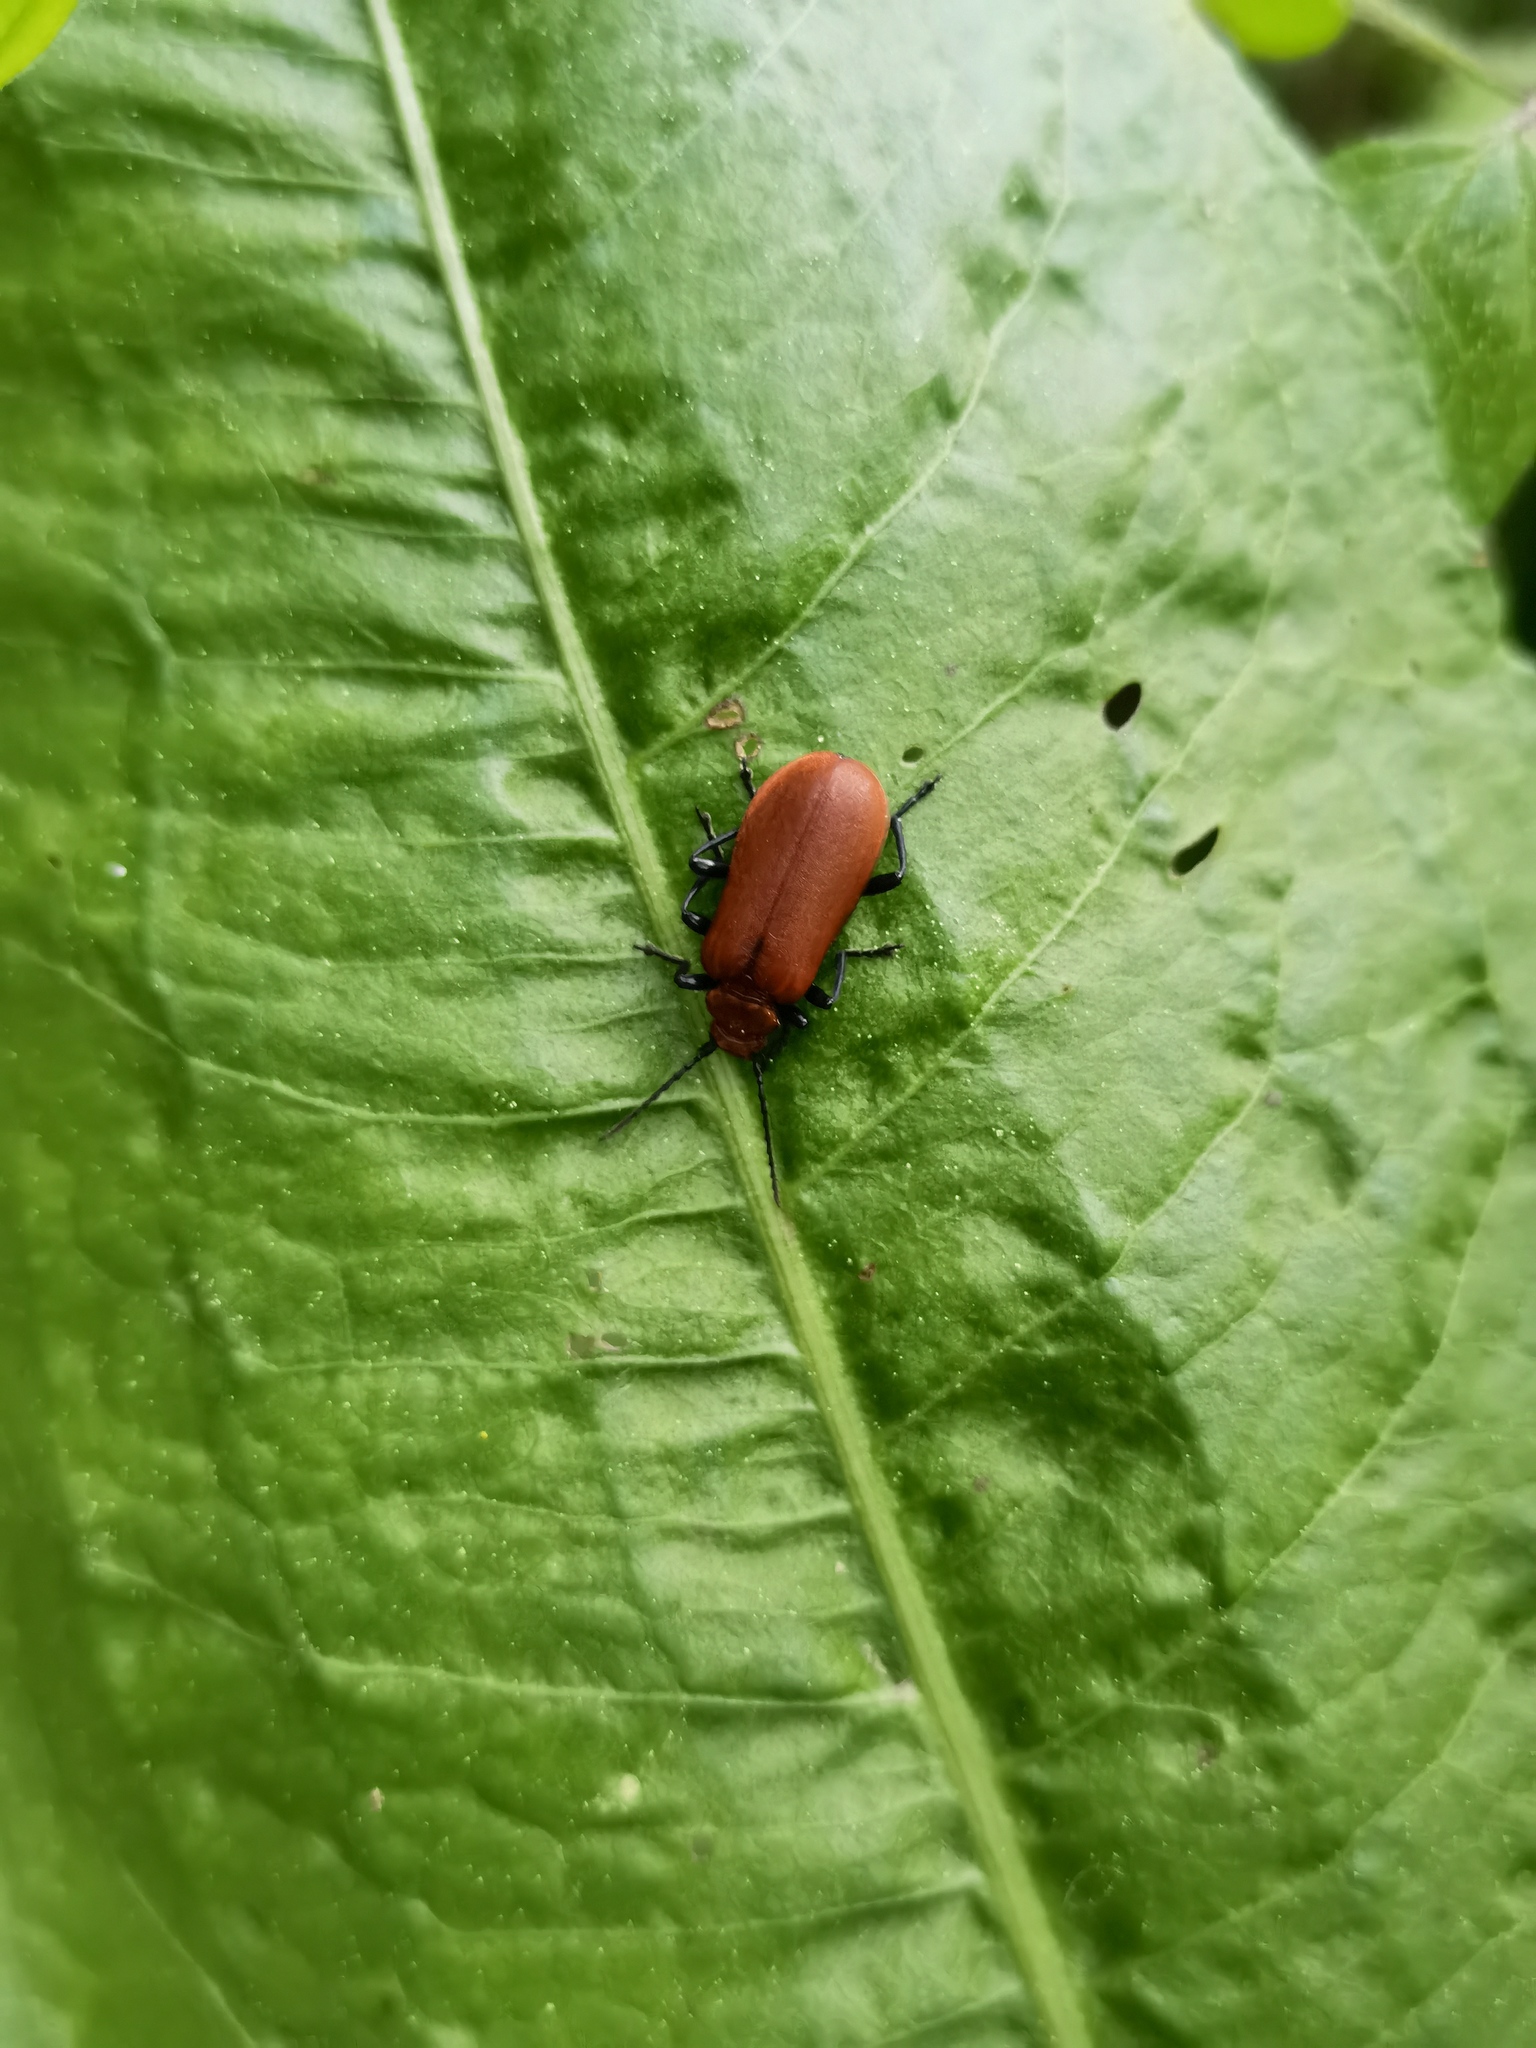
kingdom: Animalia
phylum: Arthropoda
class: Insecta
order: Coleoptera
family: Pyrochroidae
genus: Pyrochroa
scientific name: Pyrochroa serraticornis
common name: Red-headed cardinal beetle
